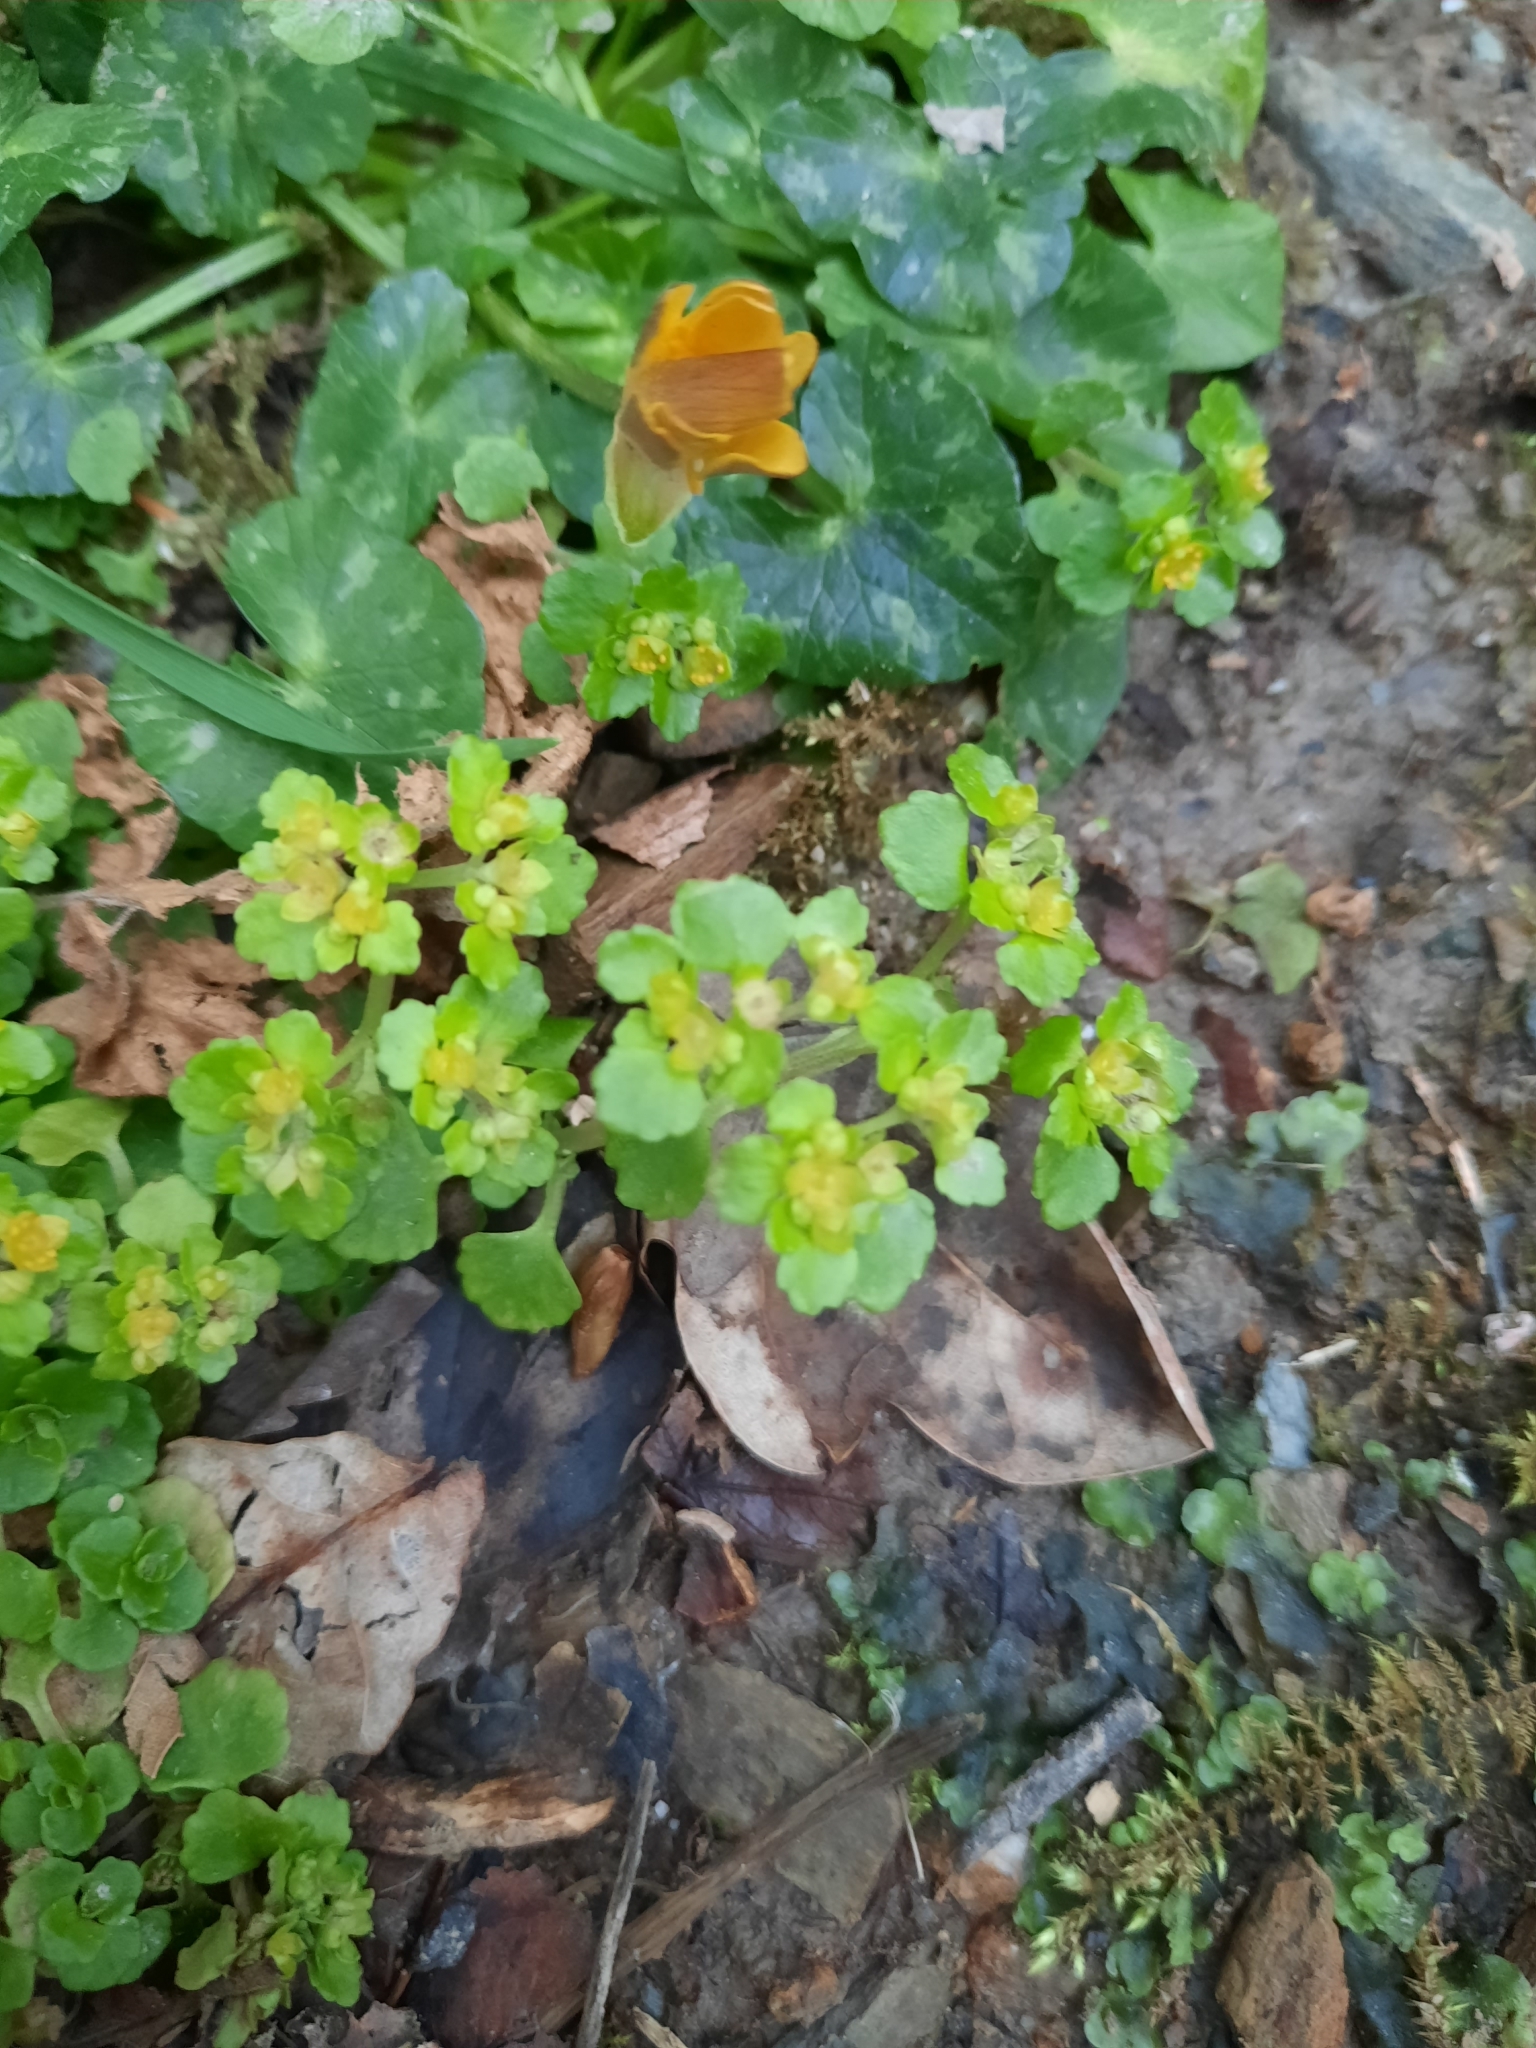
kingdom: Plantae
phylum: Tracheophyta
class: Magnoliopsida
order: Saxifragales
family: Saxifragaceae
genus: Chrysosplenium
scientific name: Chrysosplenium oppositifolium
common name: Opposite-leaved golden-saxifrage
